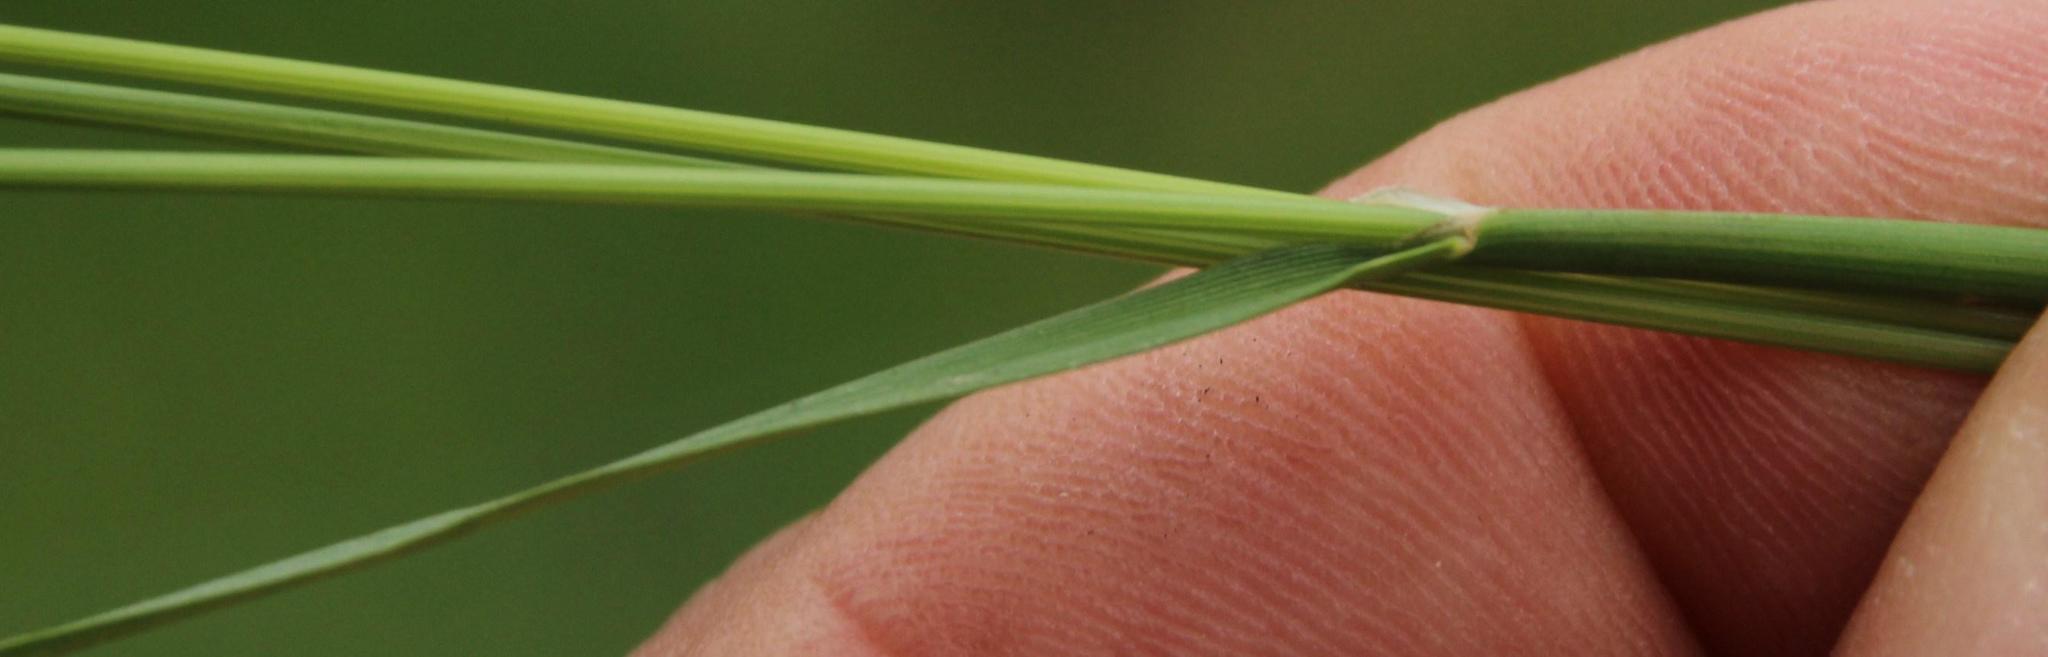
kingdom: Plantae
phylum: Tracheophyta
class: Liliopsida
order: Poales
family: Poaceae
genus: Cynosurus
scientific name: Cynosurus cristatus
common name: Crested dog's-tail
